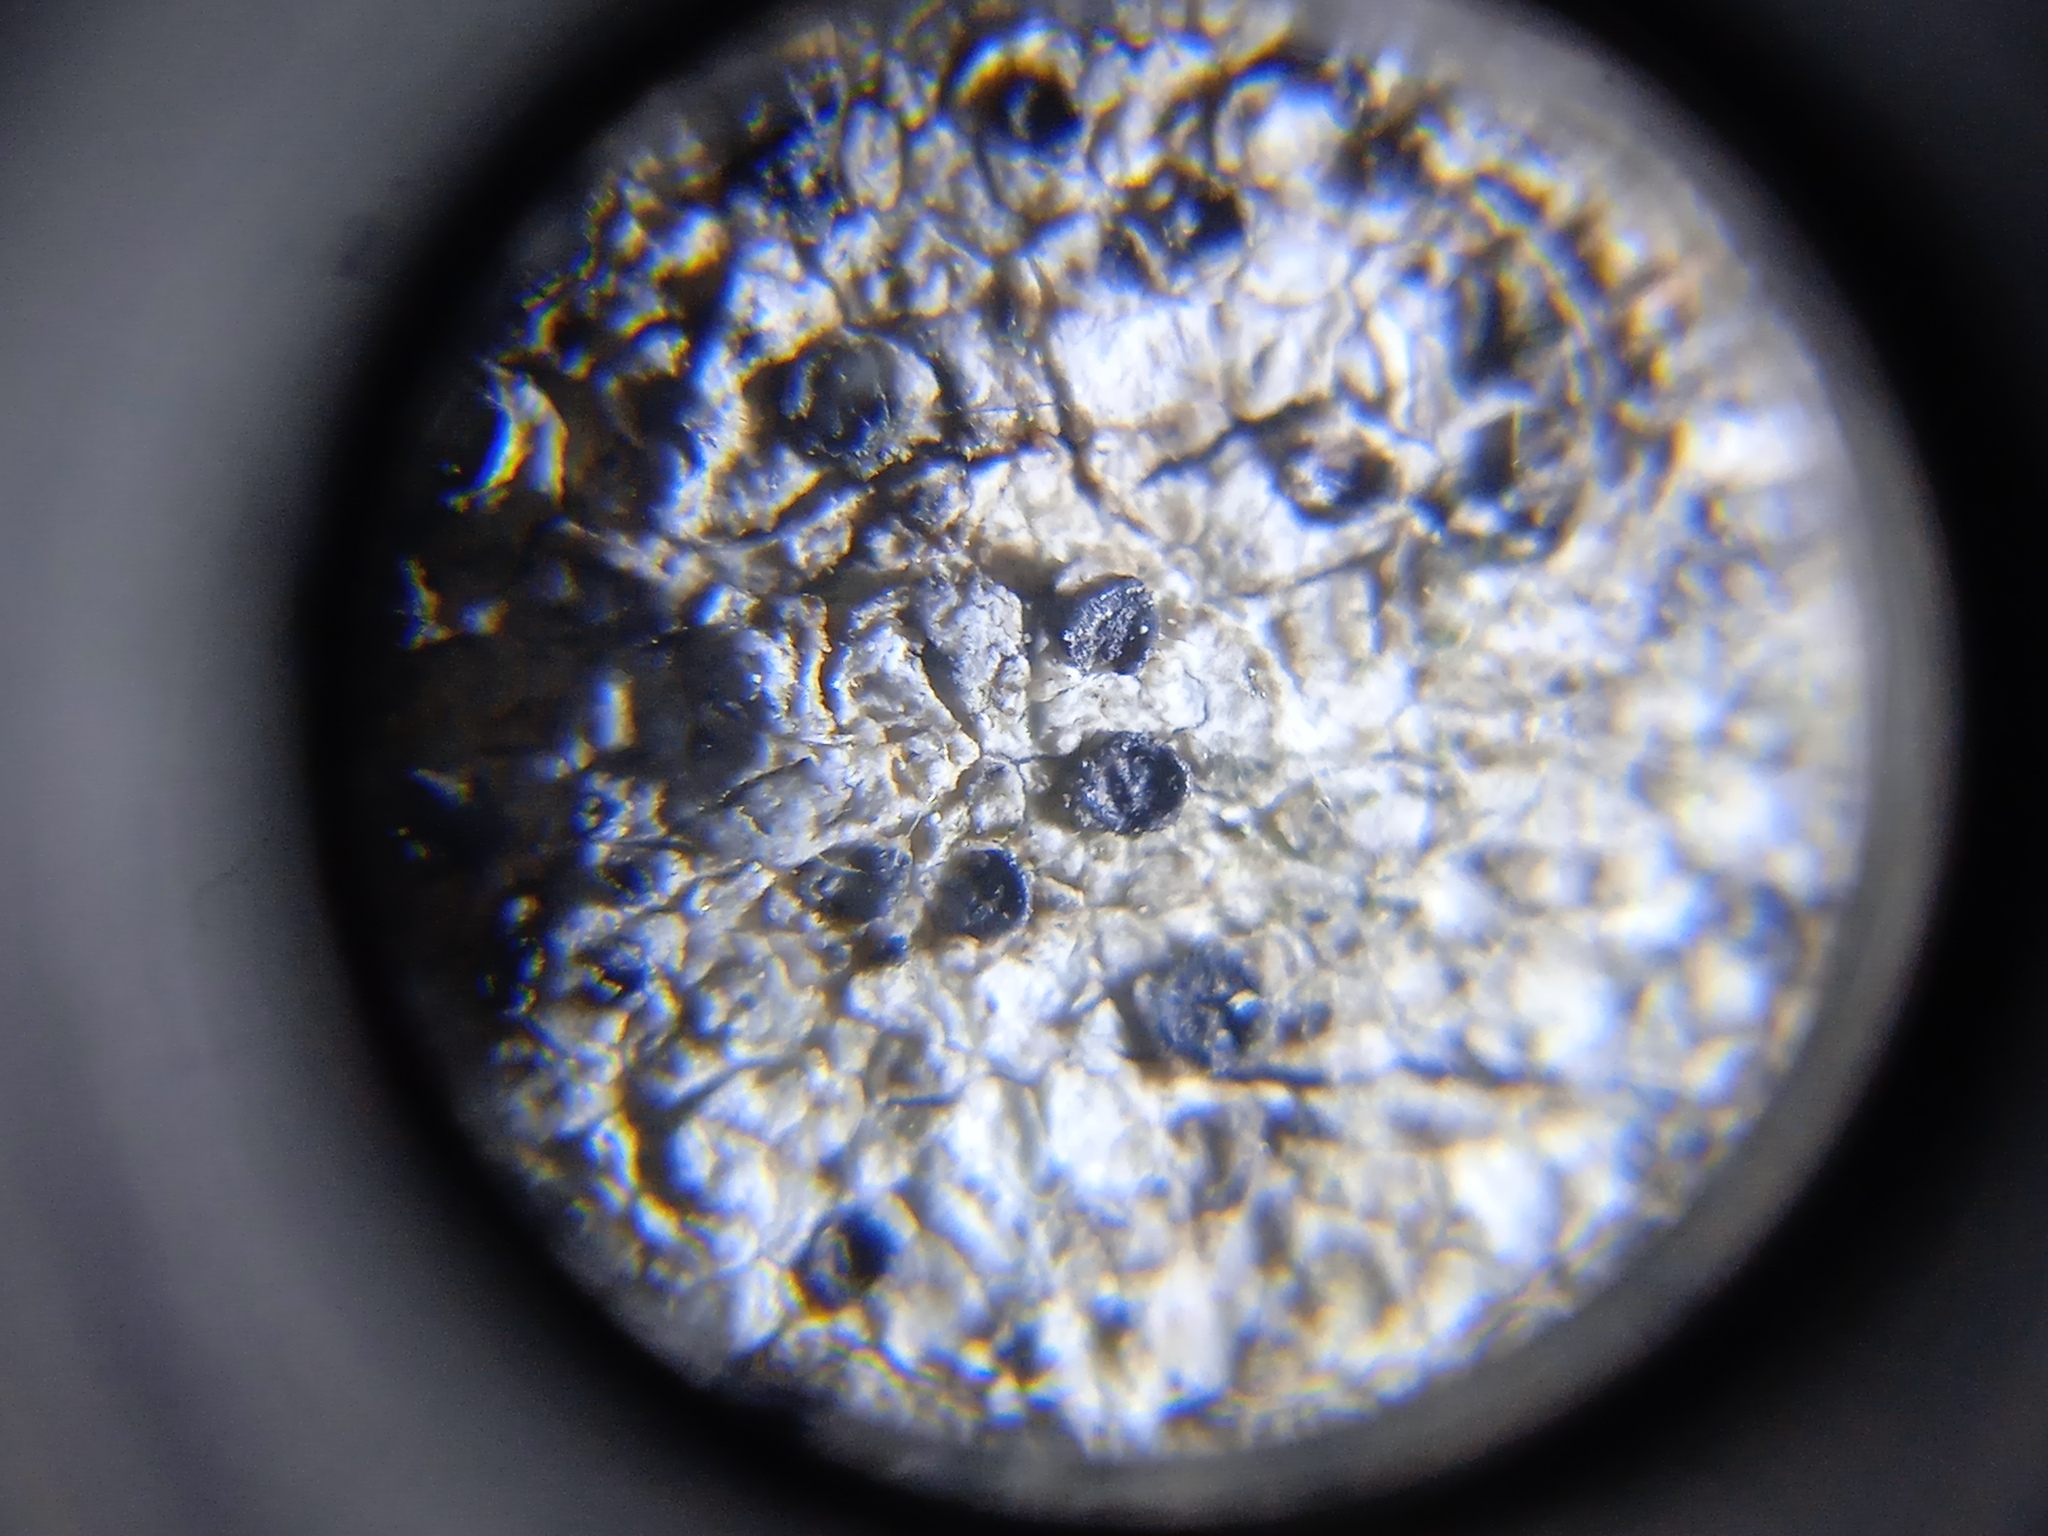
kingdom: Fungi
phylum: Ascomycota
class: Lecanoromycetes
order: Caliciales
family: Caliciaceae
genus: Buellia
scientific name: Buellia disciformis
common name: Boreal button lichen
